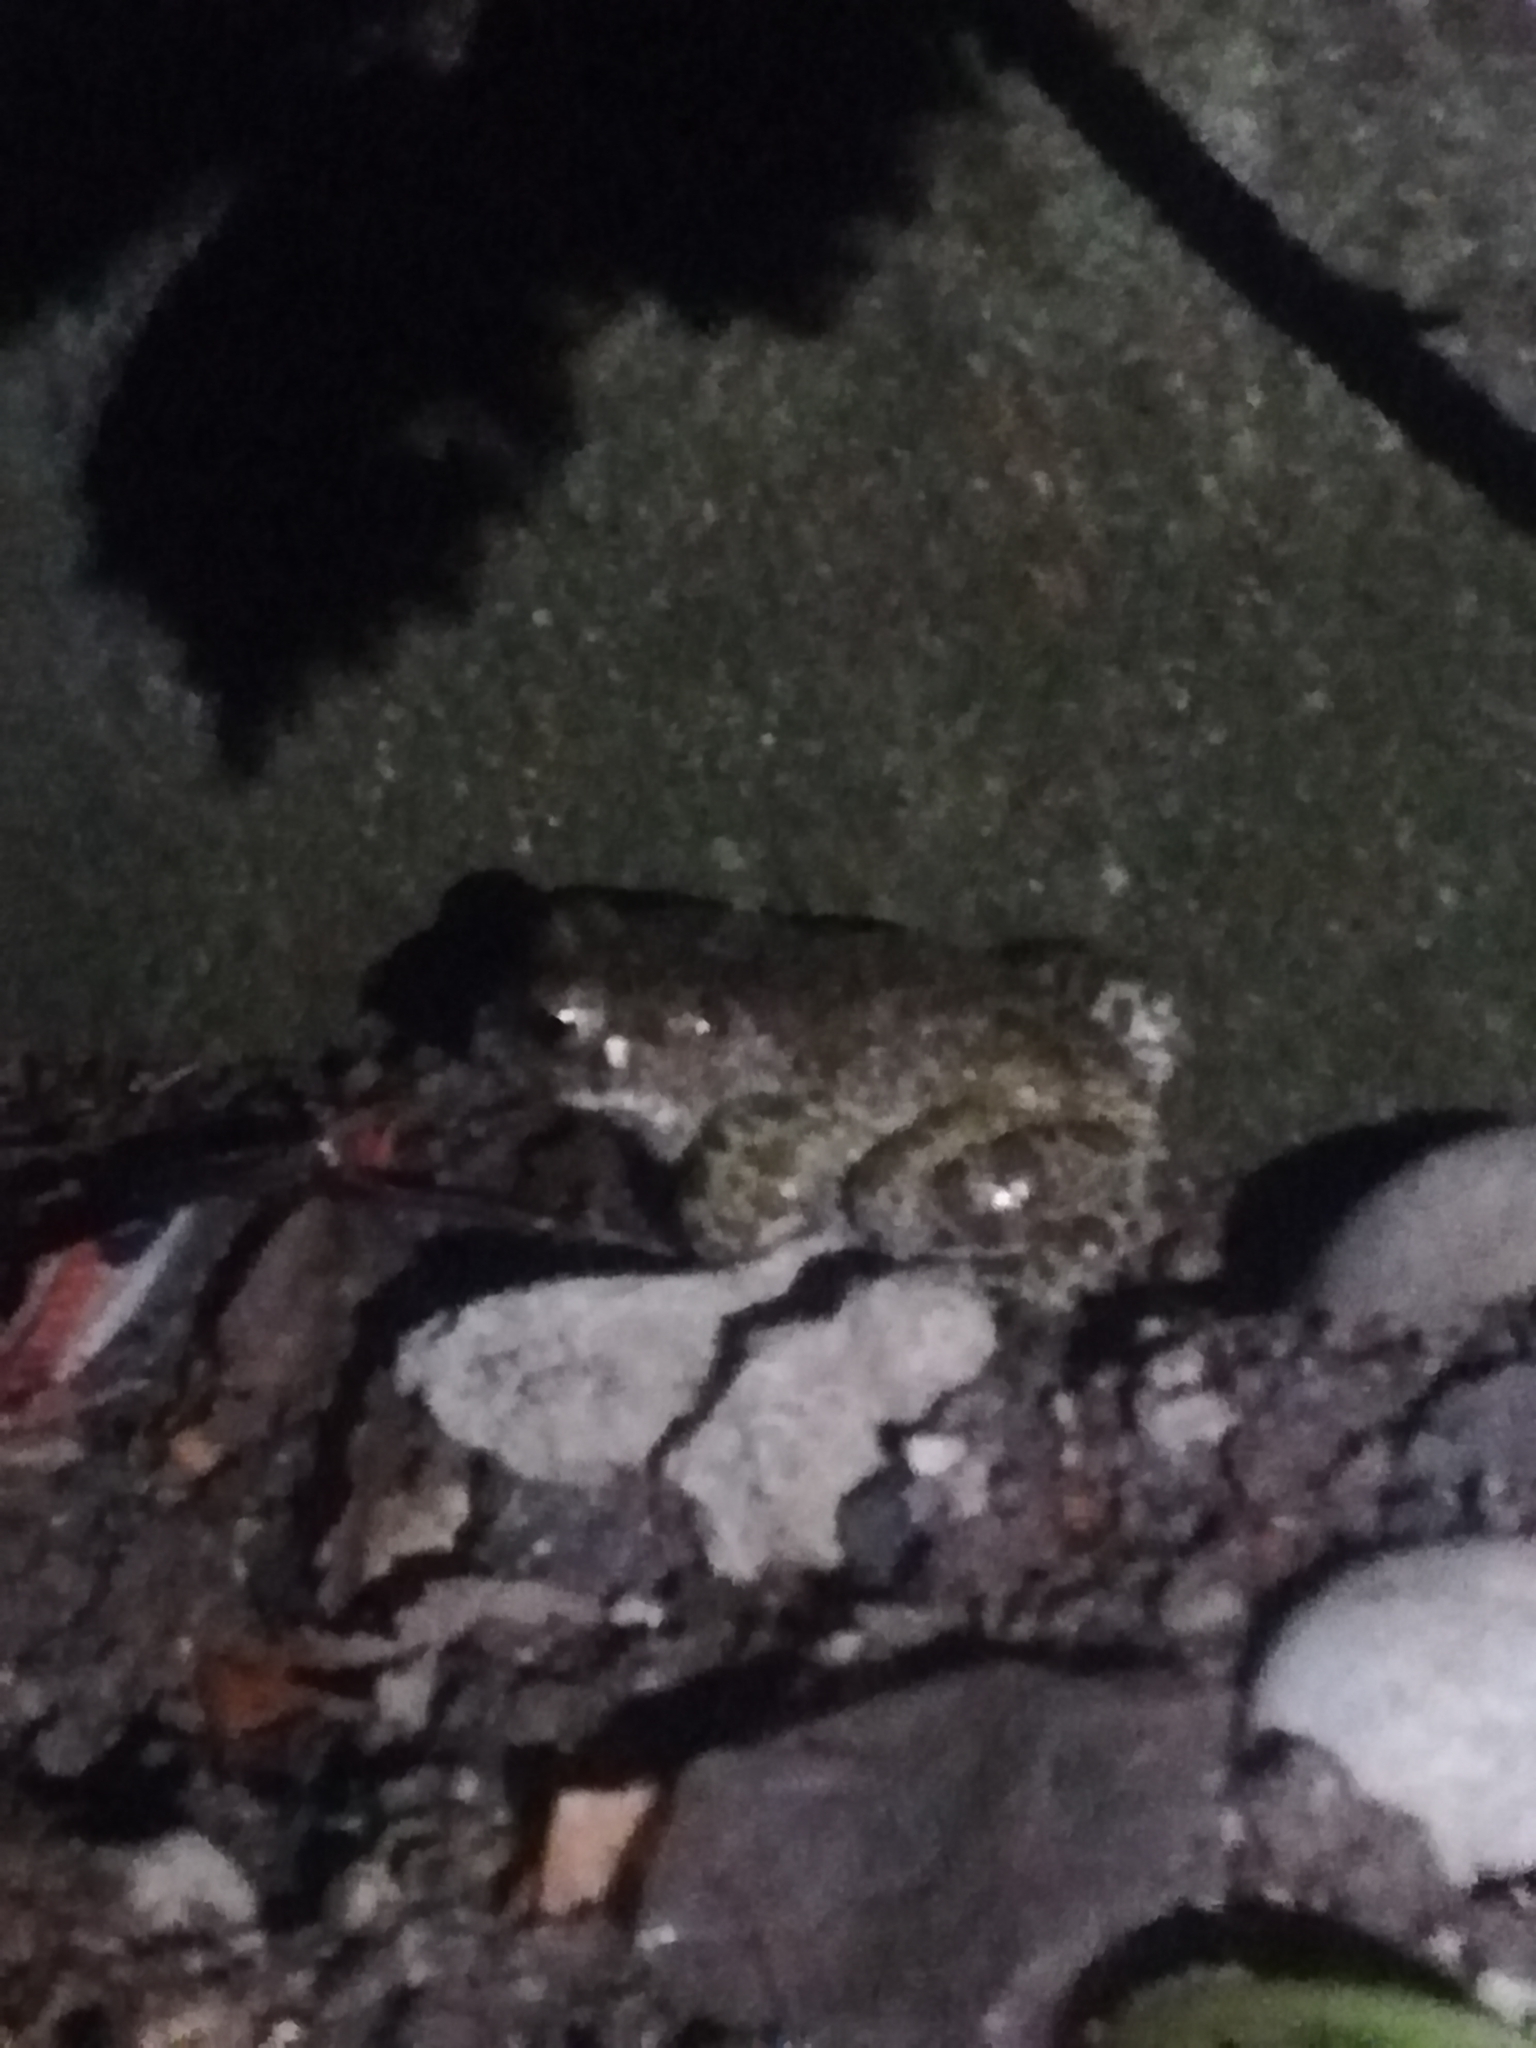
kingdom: Animalia
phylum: Chordata
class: Amphibia
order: Anura
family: Bufonidae
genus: Bufotes
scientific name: Bufotes viridis
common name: European green toad
